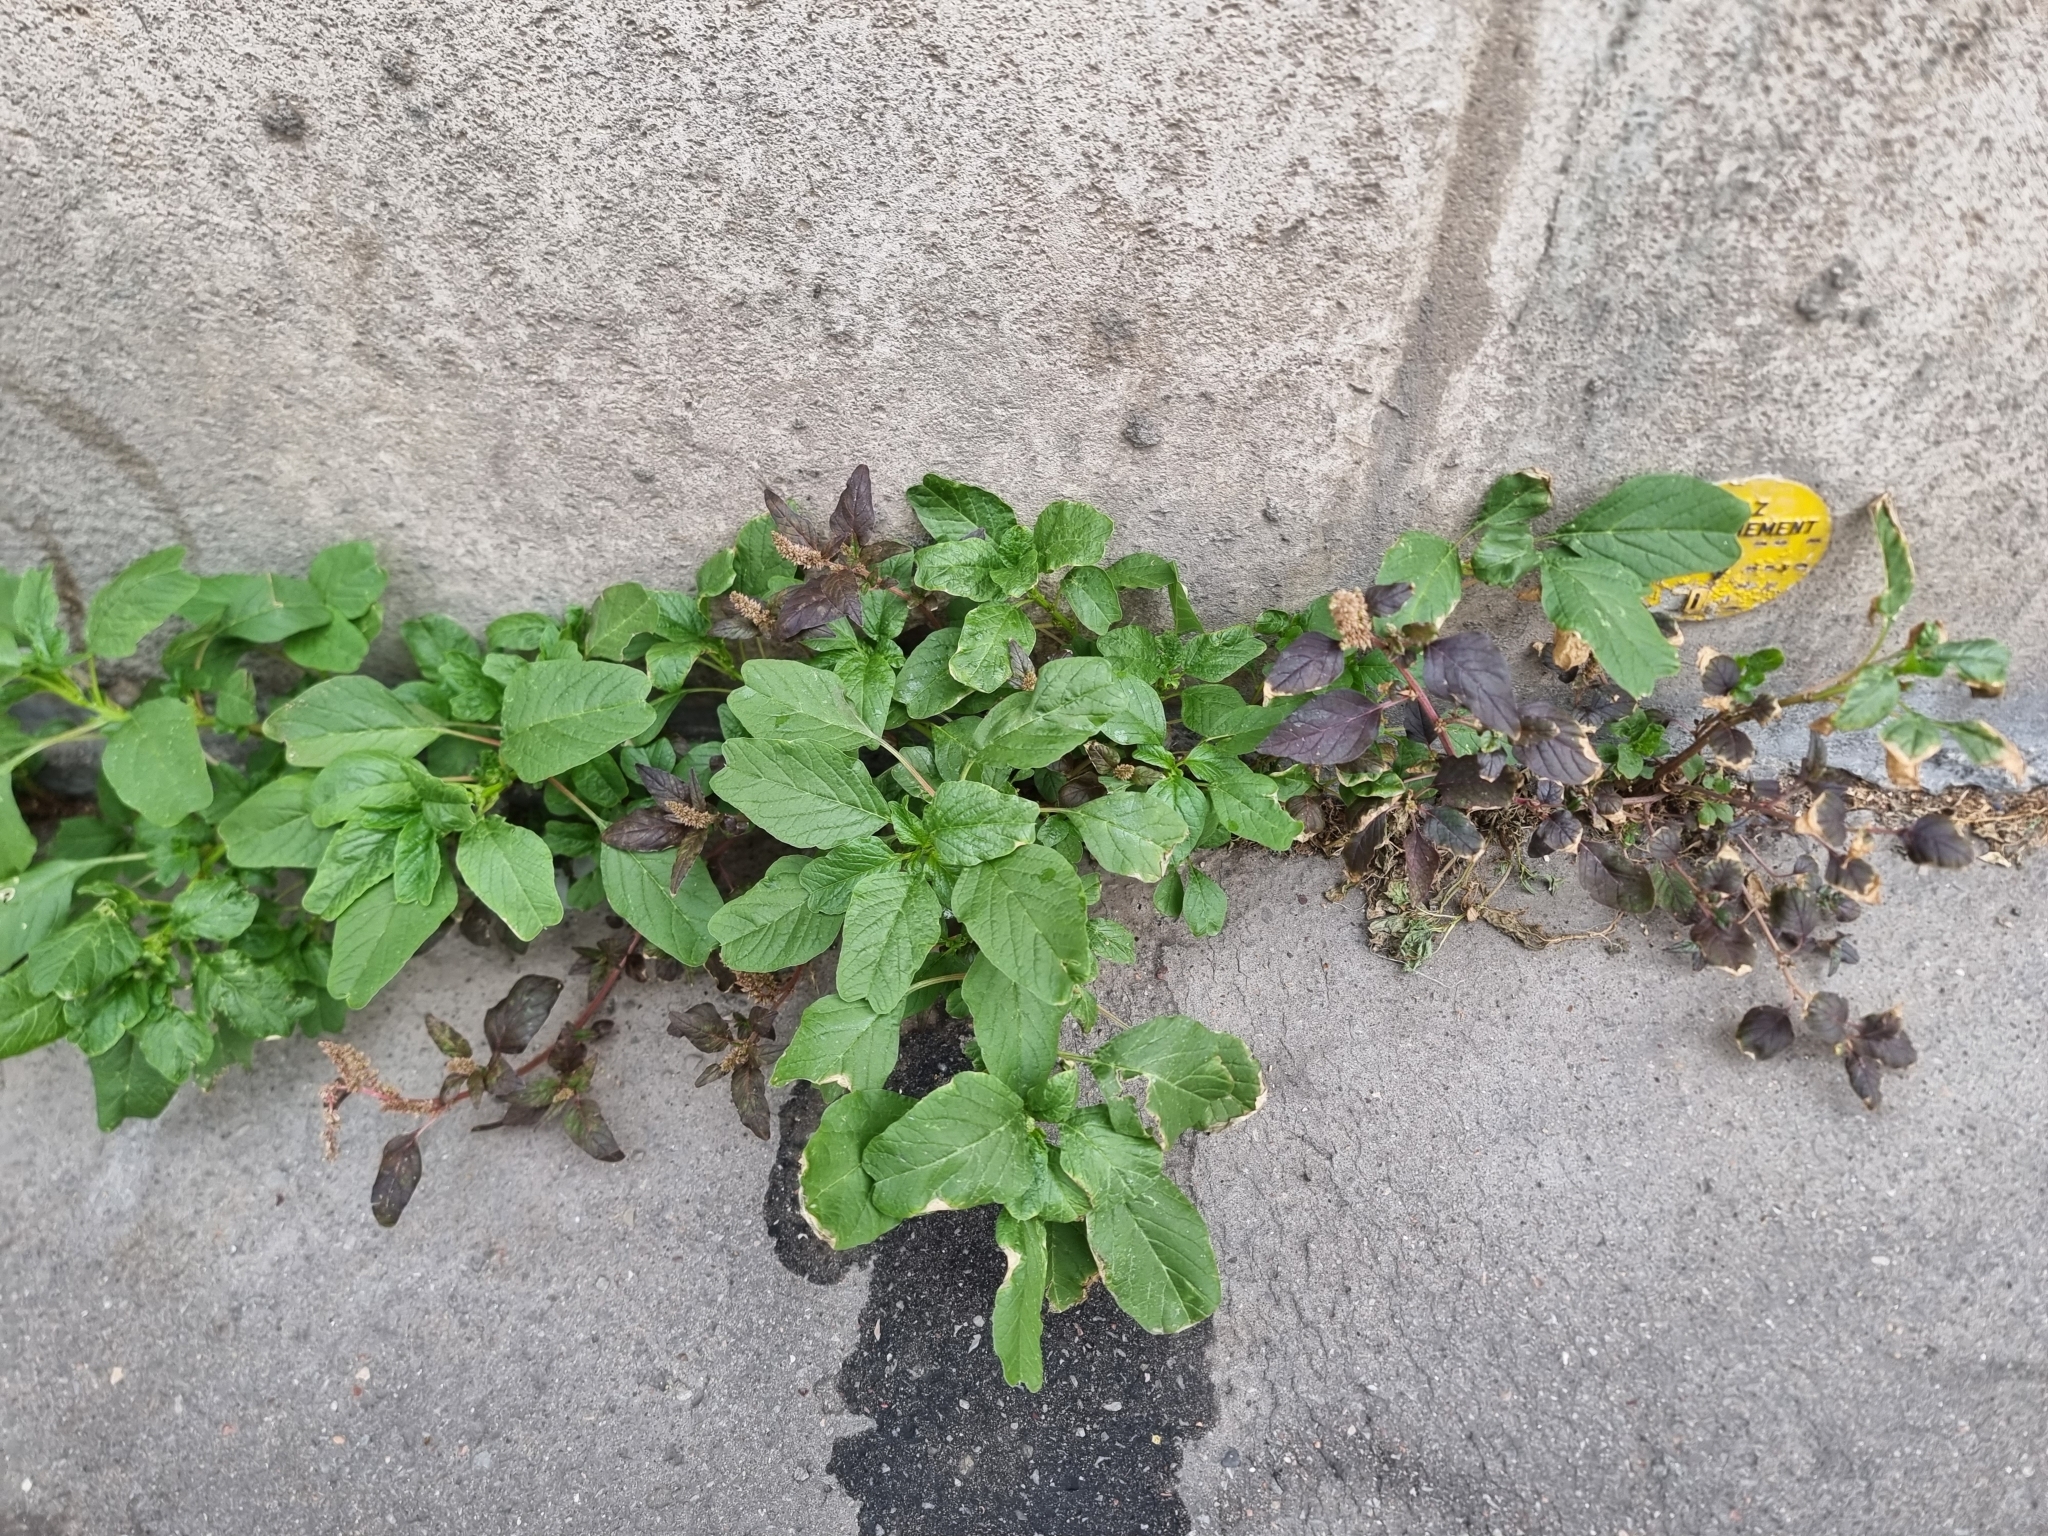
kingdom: Plantae
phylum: Tracheophyta
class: Magnoliopsida
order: Caryophyllales
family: Amaranthaceae
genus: Amaranthus
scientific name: Amaranthus blitum
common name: Purple amaranth
